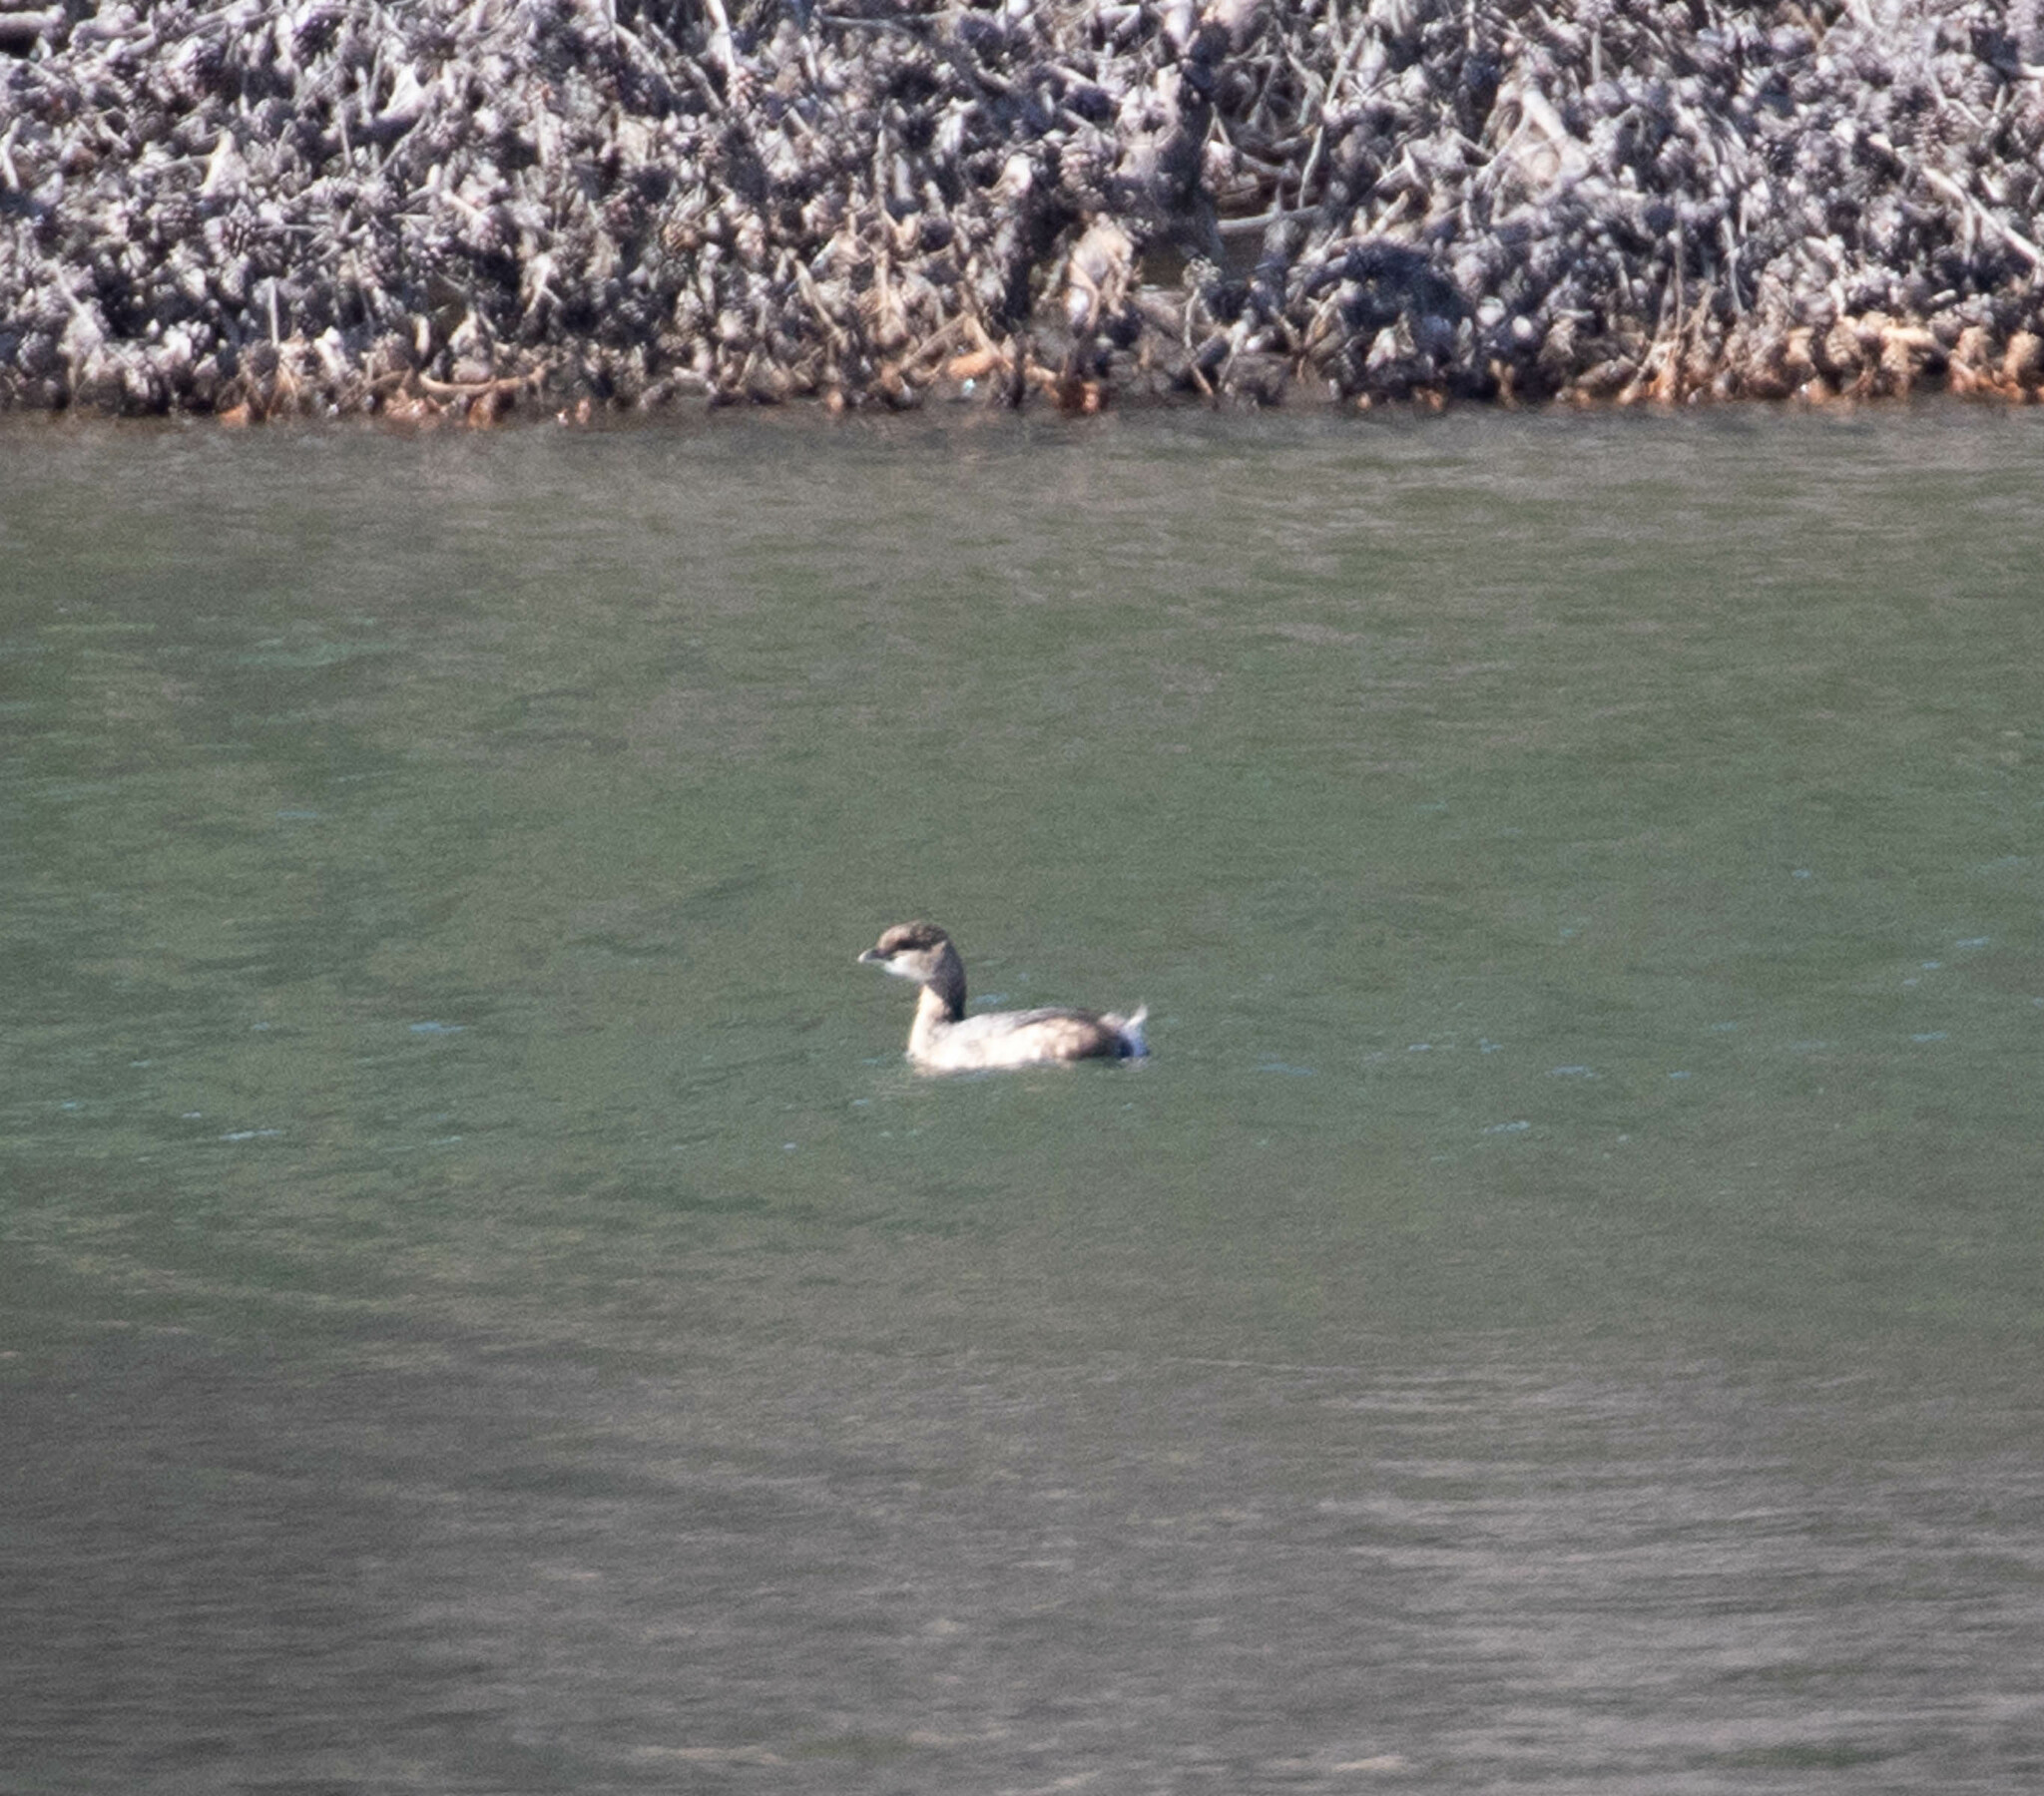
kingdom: Animalia
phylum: Chordata
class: Aves
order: Podicipediformes
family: Podicipedidae
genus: Podilymbus
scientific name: Podilymbus podiceps
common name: Pied-billed grebe
